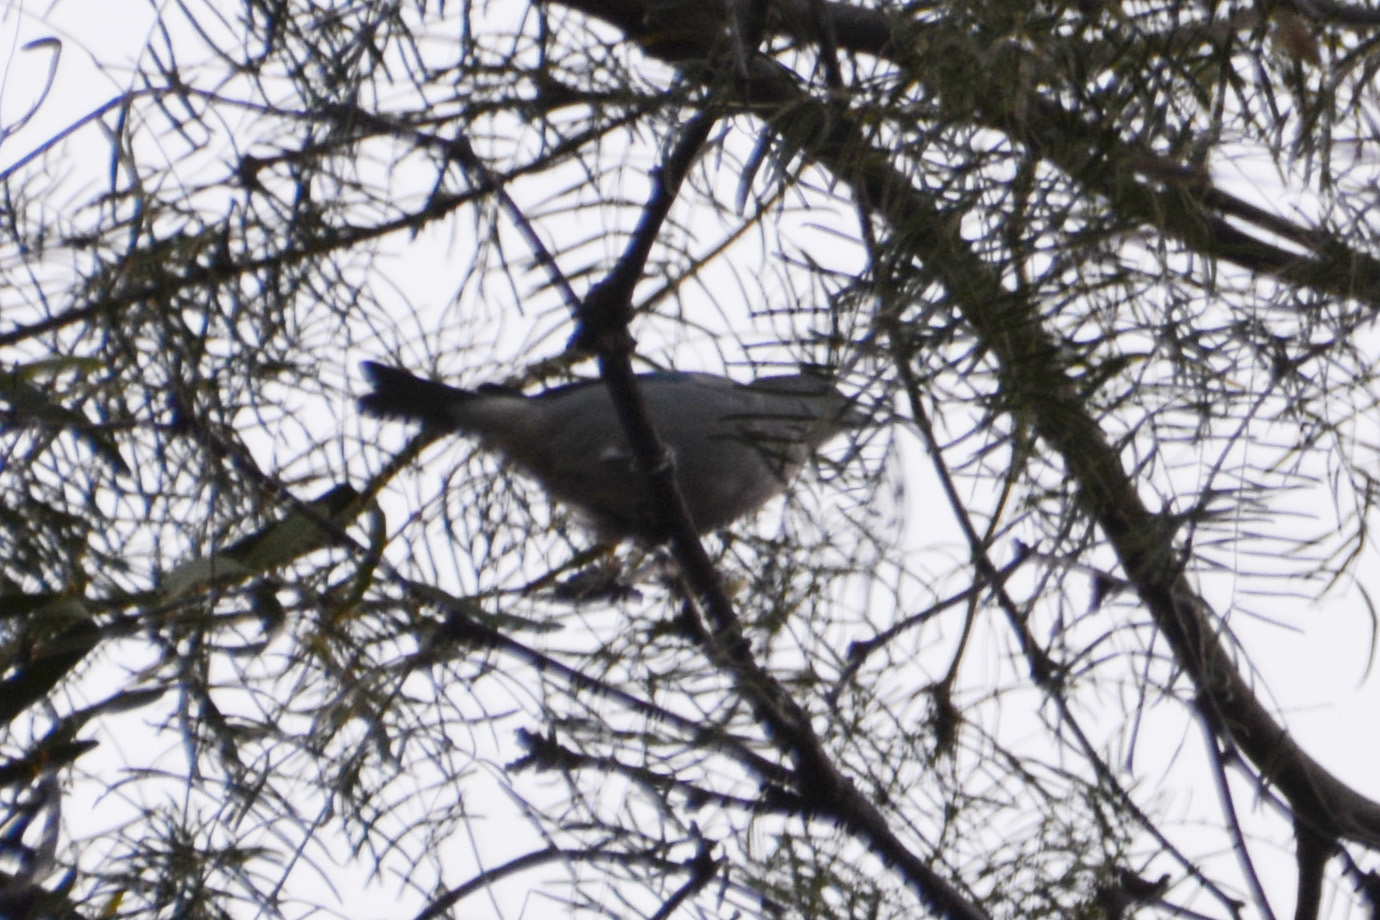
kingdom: Animalia
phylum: Chordata
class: Aves
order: Passeriformes
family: Thraupidae
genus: Thraupis
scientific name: Thraupis sayaca
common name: Sayaca tanager
